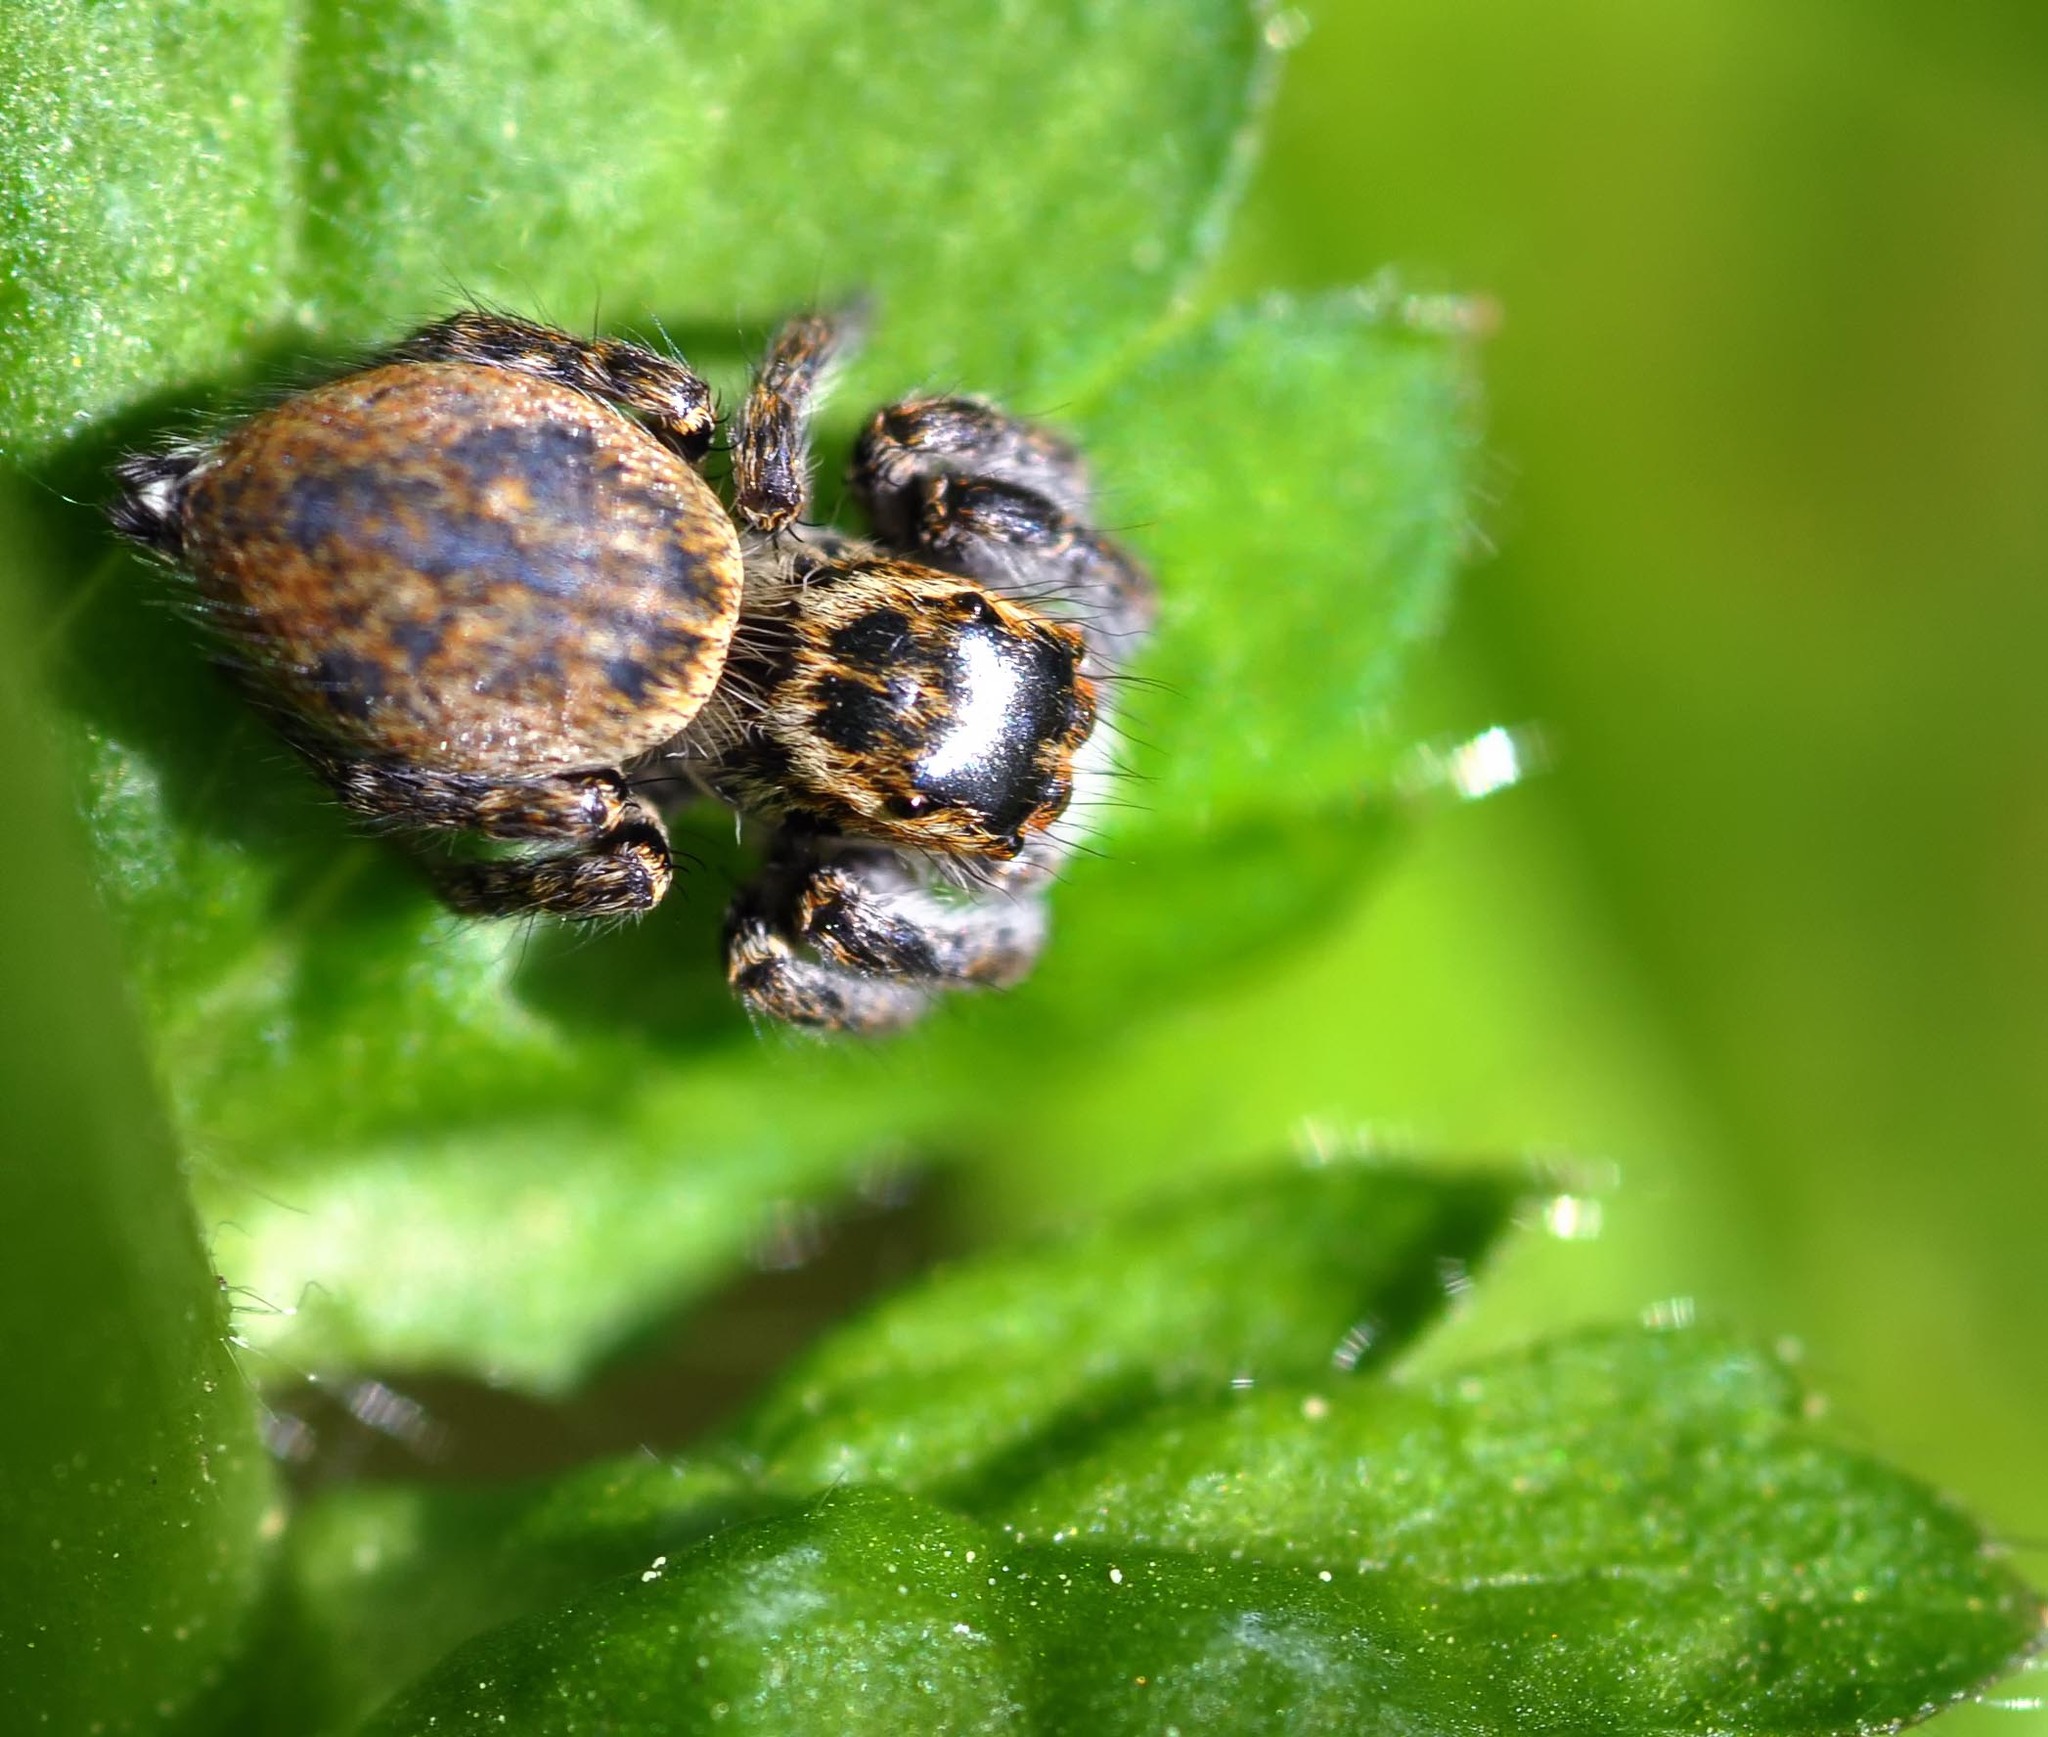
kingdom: Animalia
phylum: Arthropoda
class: Arachnida
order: Araneae
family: Salticidae
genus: Carrhotus
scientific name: Carrhotus xanthogramma
